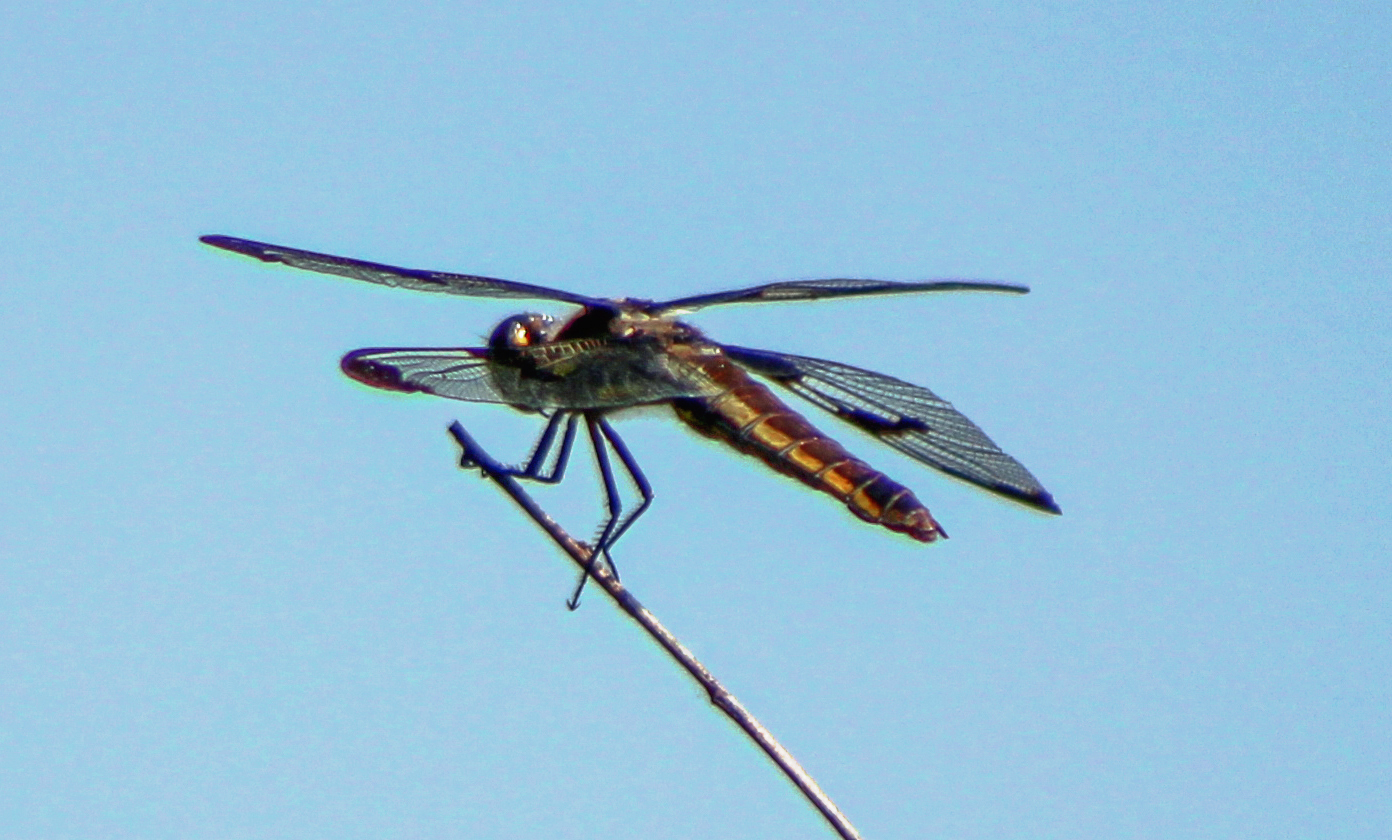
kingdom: Animalia
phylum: Arthropoda
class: Insecta
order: Odonata
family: Libellulidae
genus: Libellula
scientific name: Libellula pulchella
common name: Twelve-spotted skimmer
